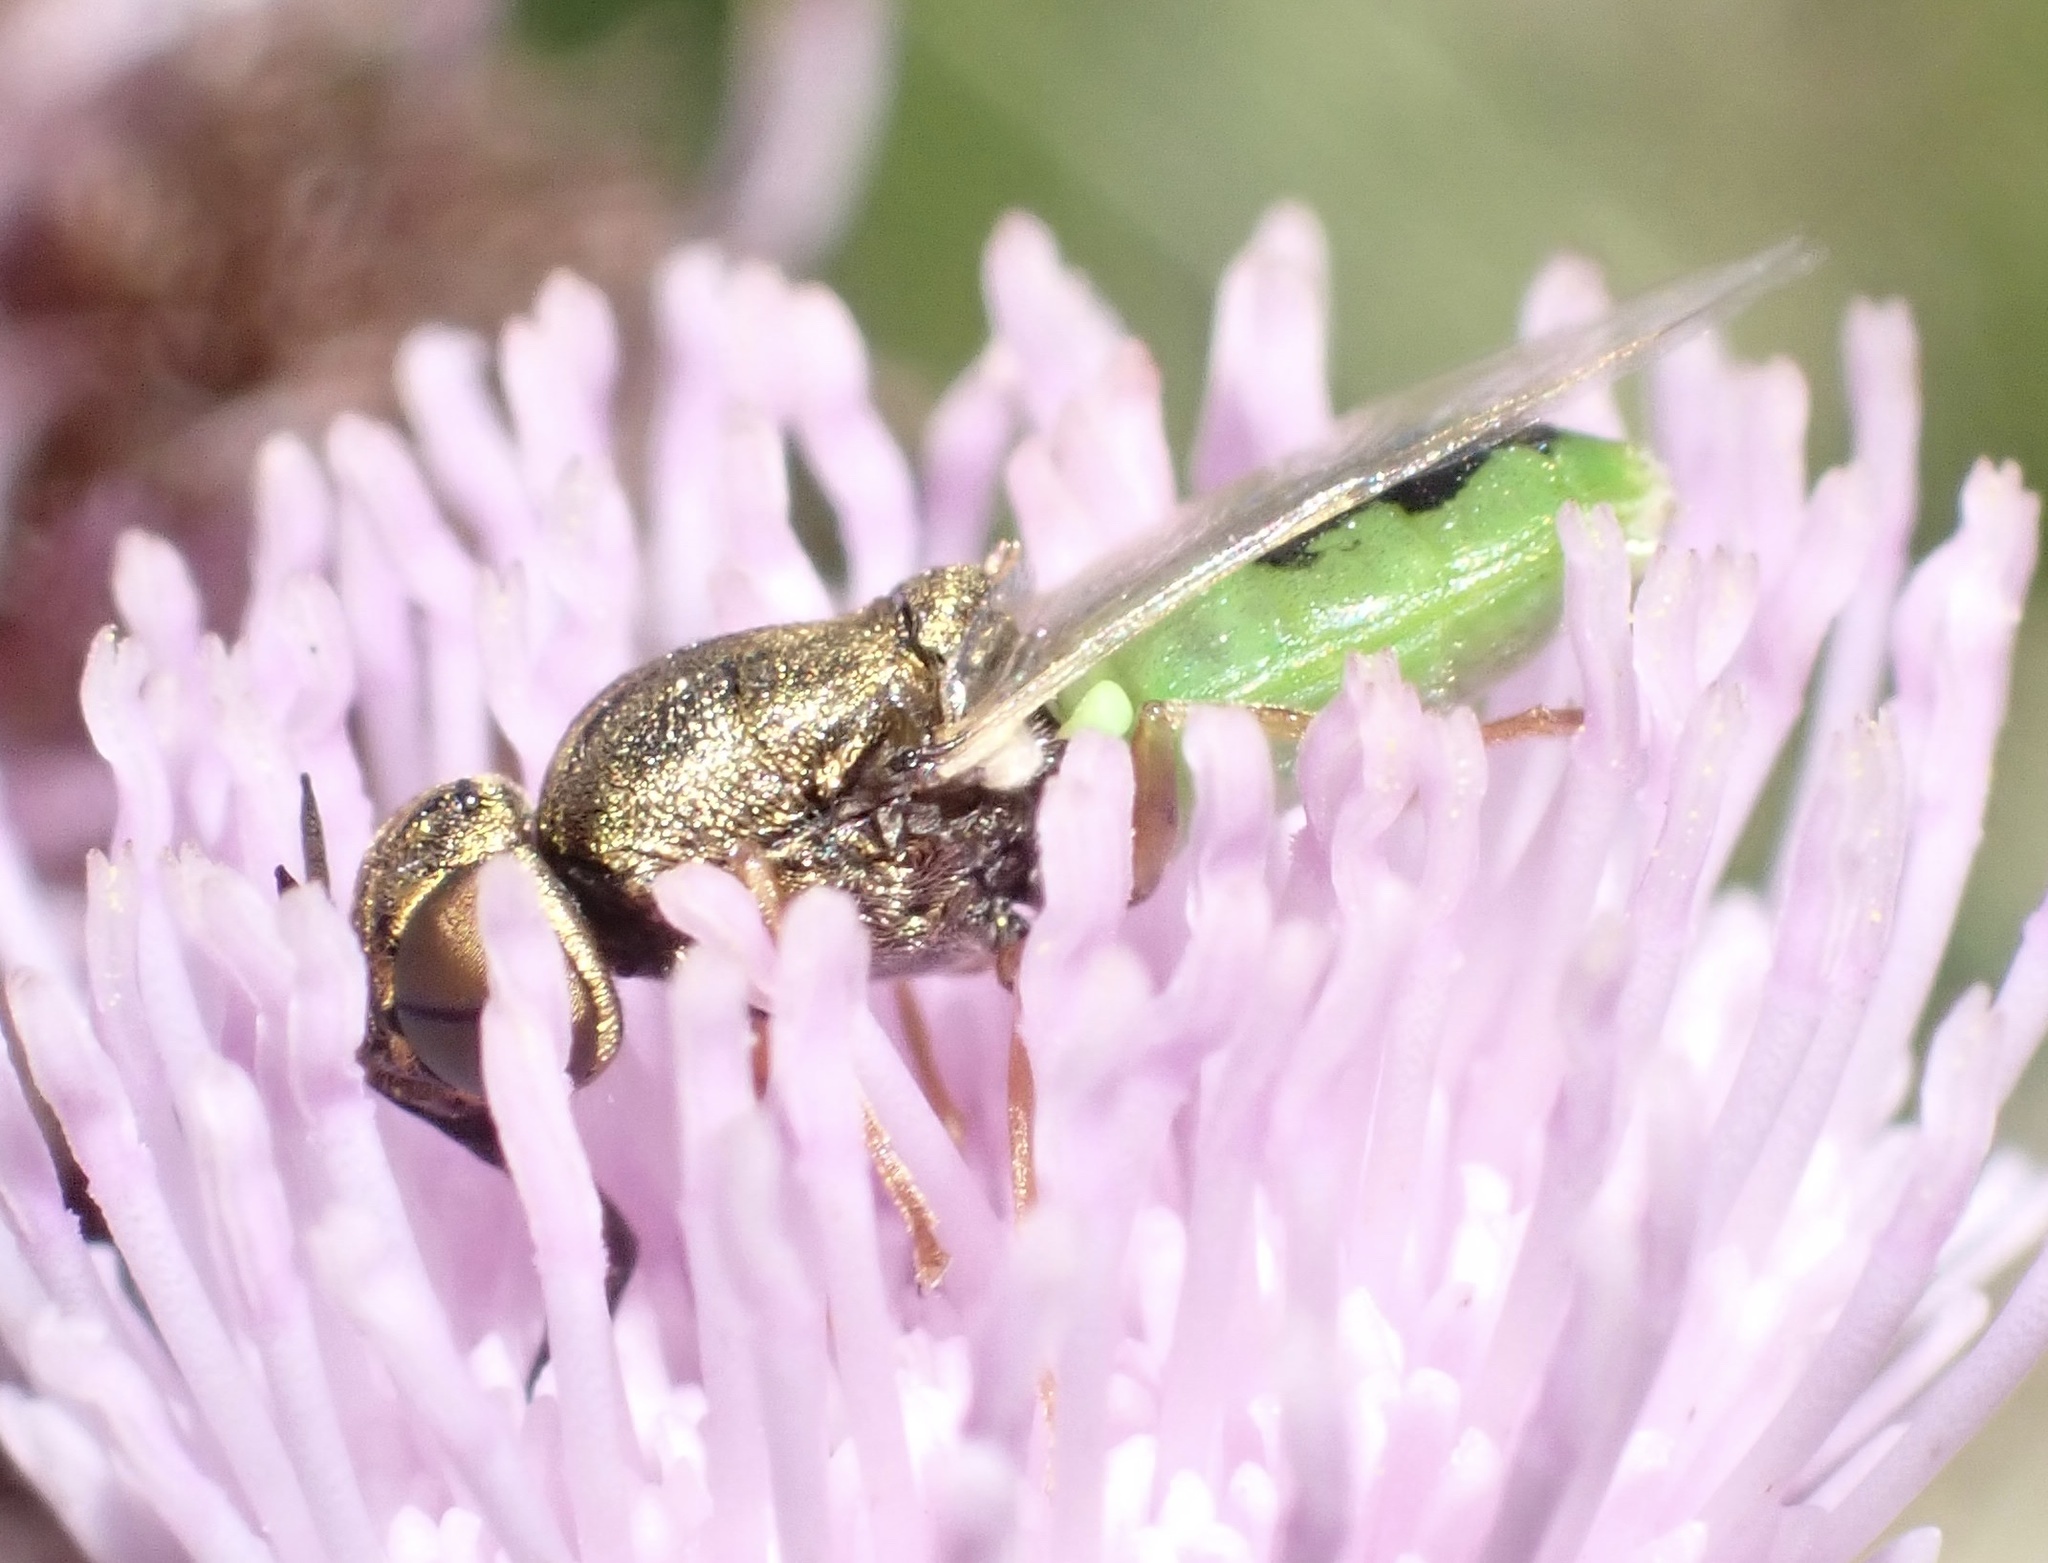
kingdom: Animalia
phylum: Arthropoda
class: Insecta
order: Diptera
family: Stratiomyidae
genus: Oplodontha
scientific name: Oplodontha viridula
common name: Common green colonel
